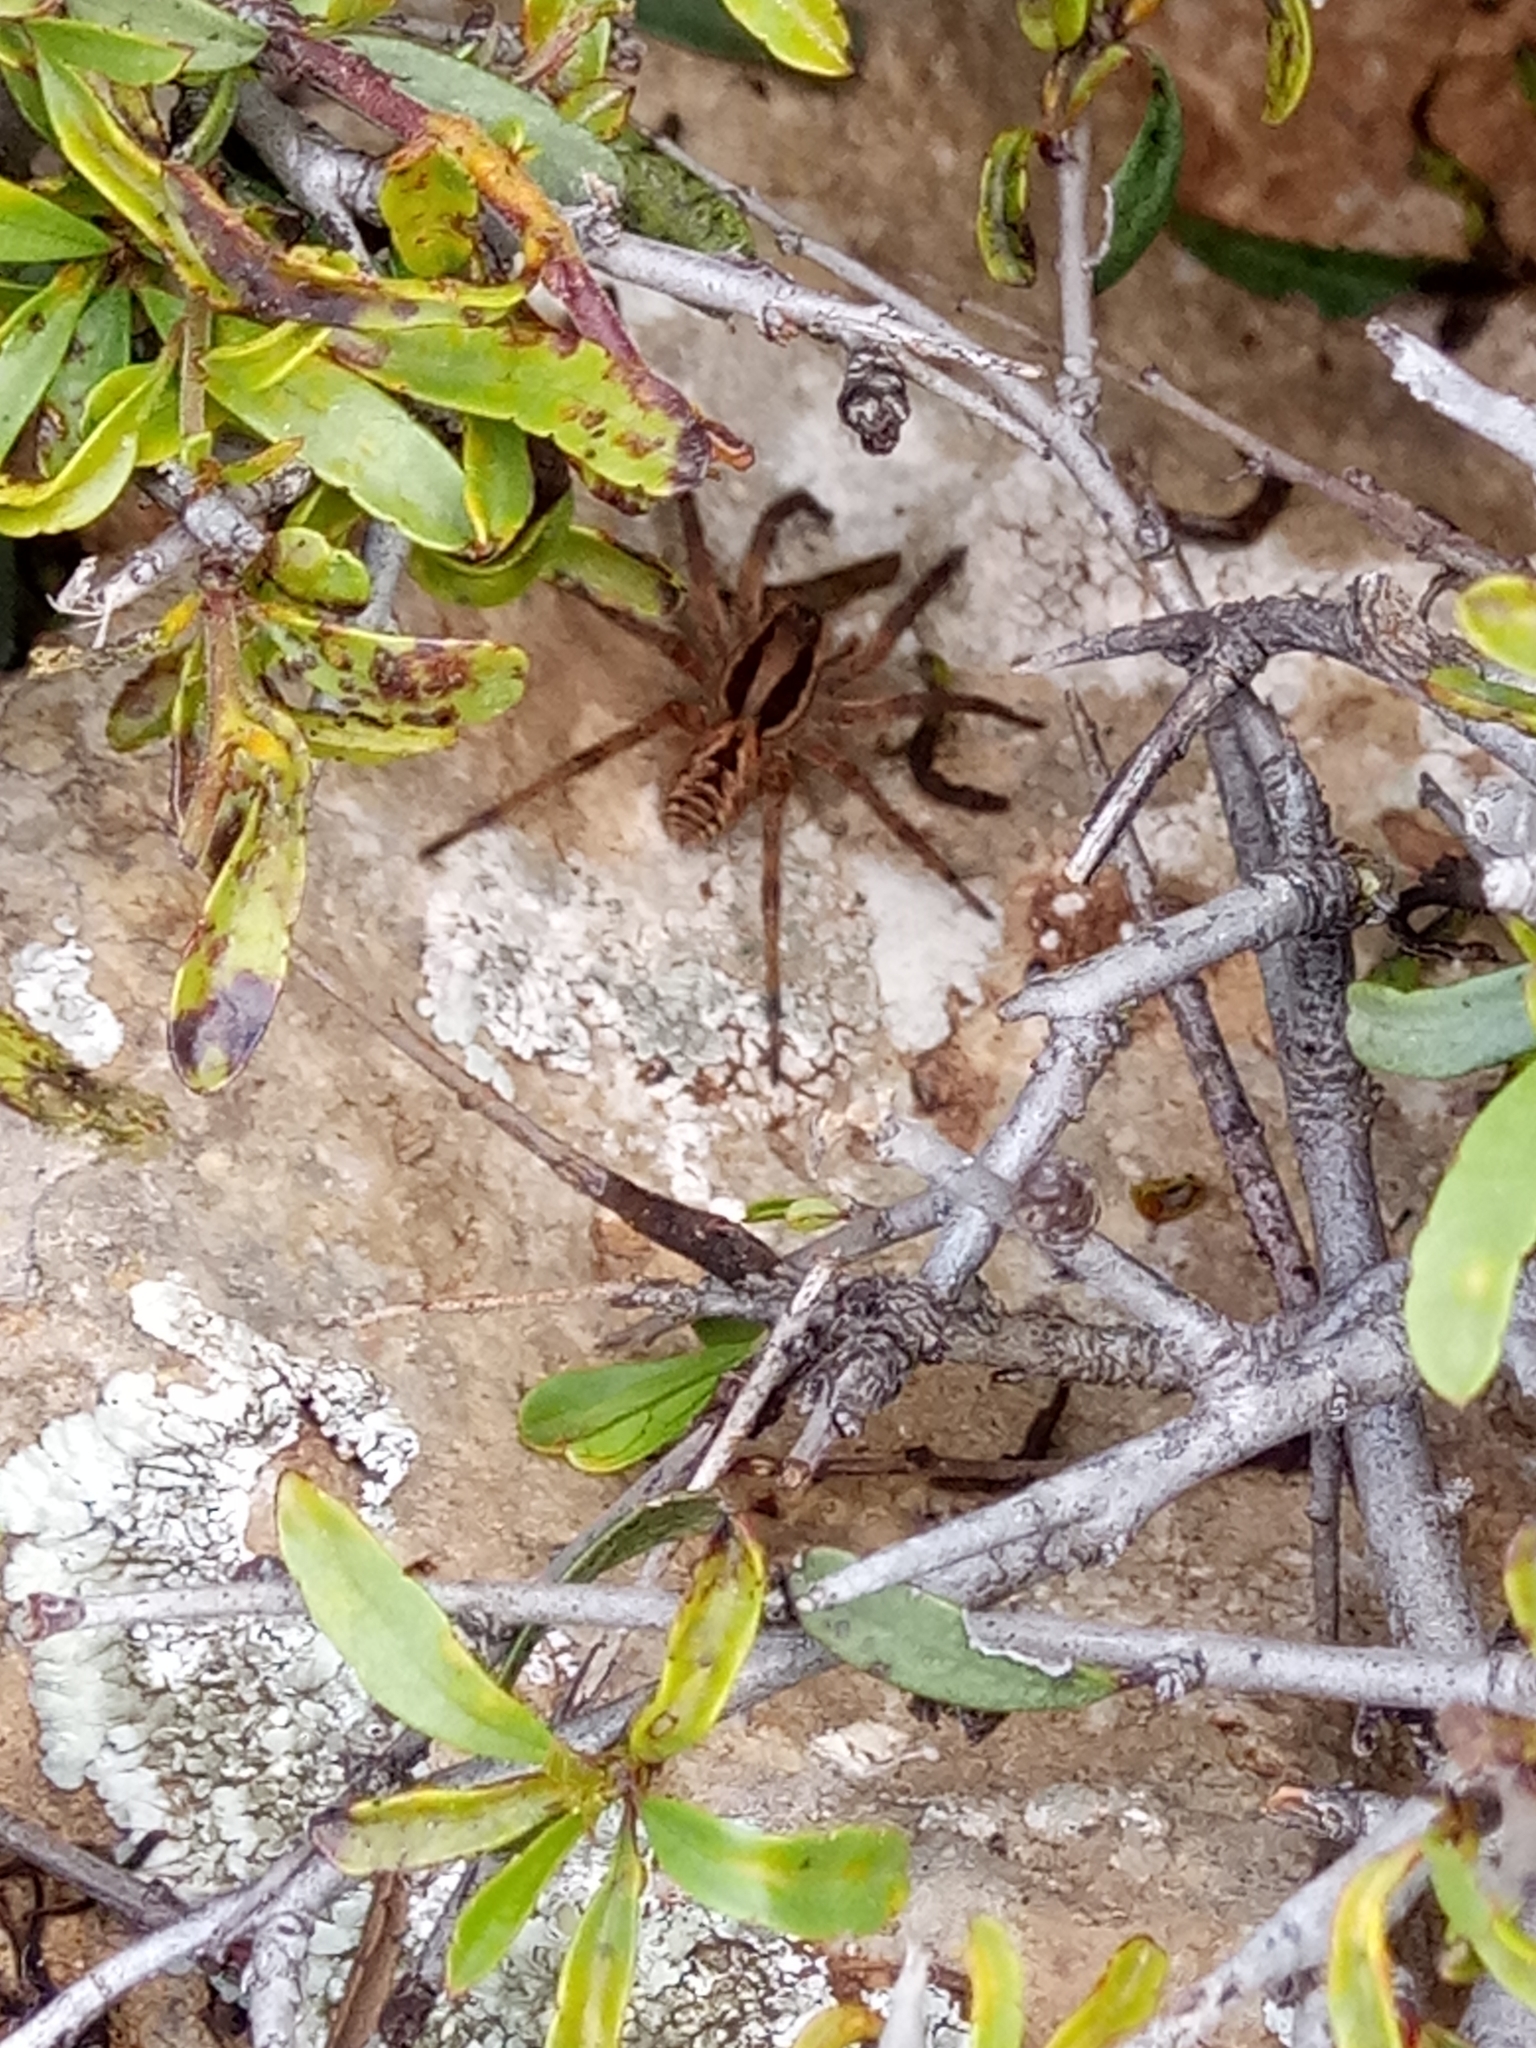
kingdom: Animalia
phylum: Arthropoda
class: Arachnida
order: Araneae
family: Lycosidae
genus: Hogna
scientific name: Hogna radiata
